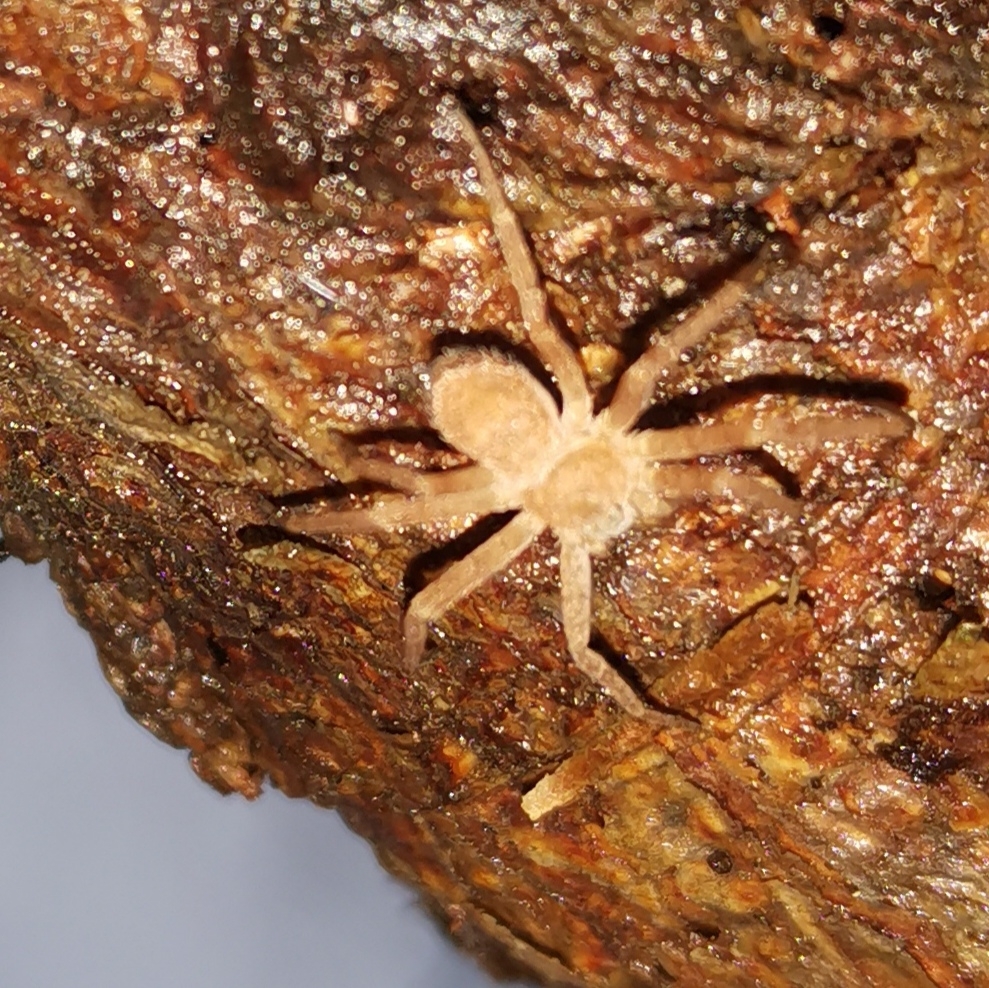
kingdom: Animalia
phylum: Arthropoda
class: Arachnida
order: Araneae
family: Philodromidae
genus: Philodromus
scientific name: Philodromus fuscomarginatus
